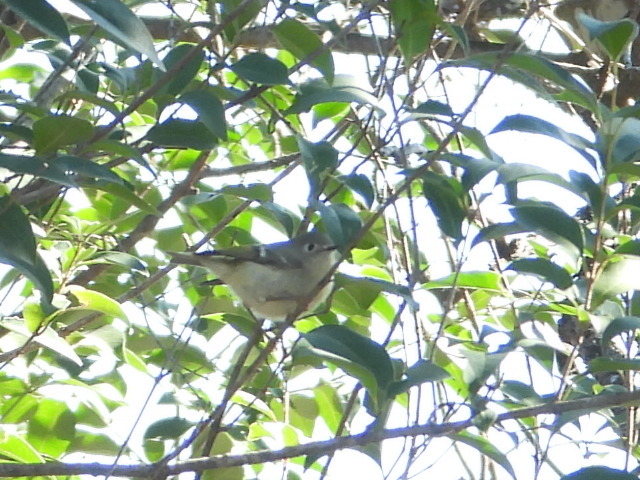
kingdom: Animalia
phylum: Chordata
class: Aves
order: Passeriformes
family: Regulidae
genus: Regulus
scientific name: Regulus calendula
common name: Ruby-crowned kinglet
